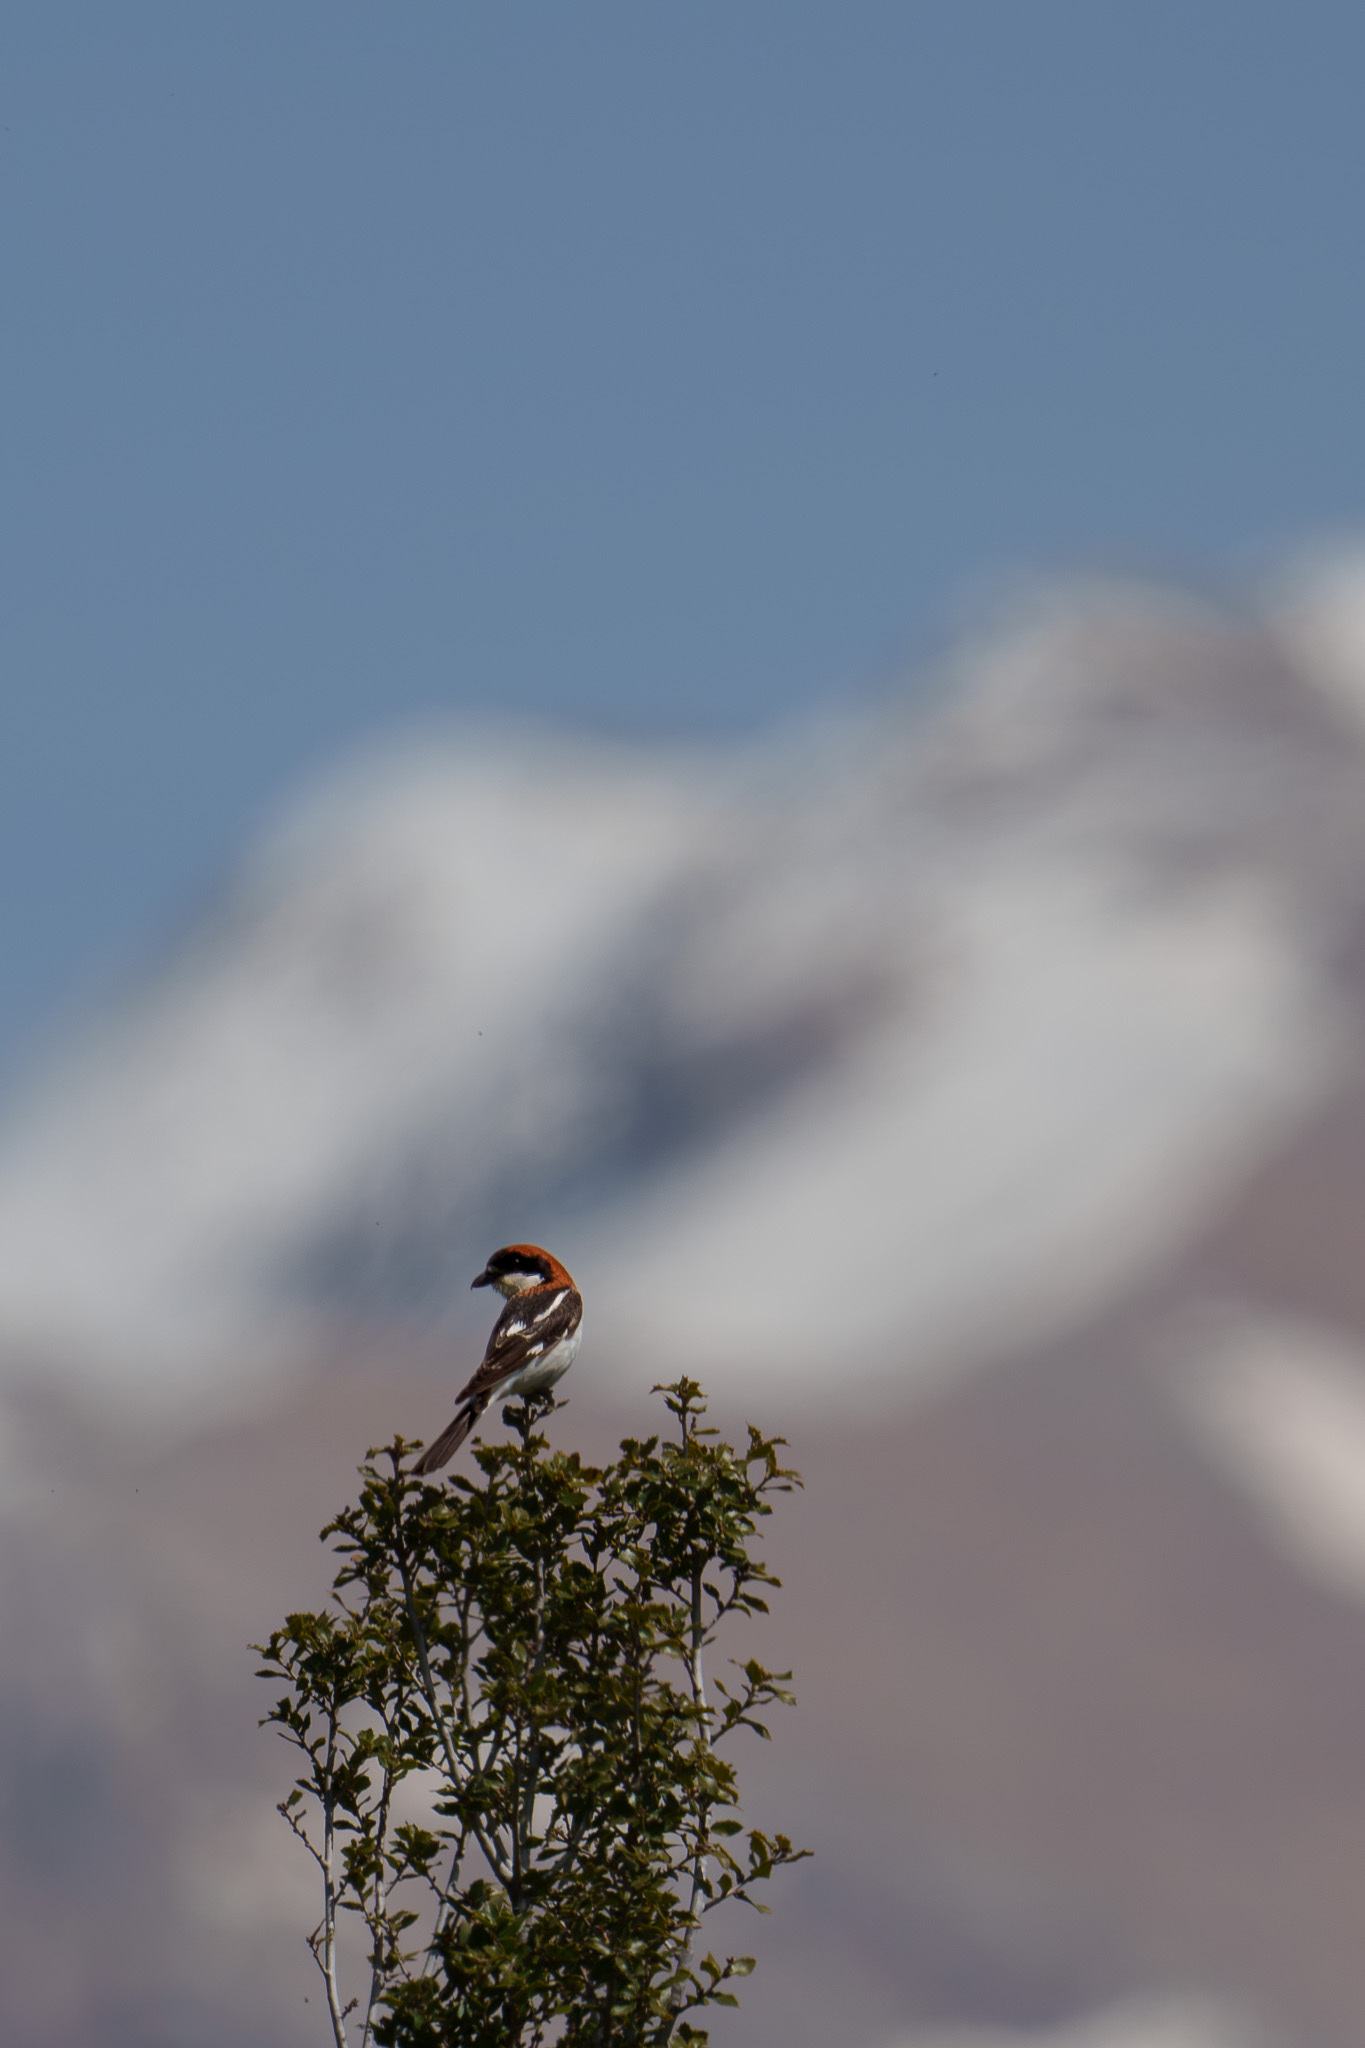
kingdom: Animalia
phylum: Chordata
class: Aves
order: Passeriformes
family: Laniidae
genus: Lanius
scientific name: Lanius senator
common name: Woodchat shrike
